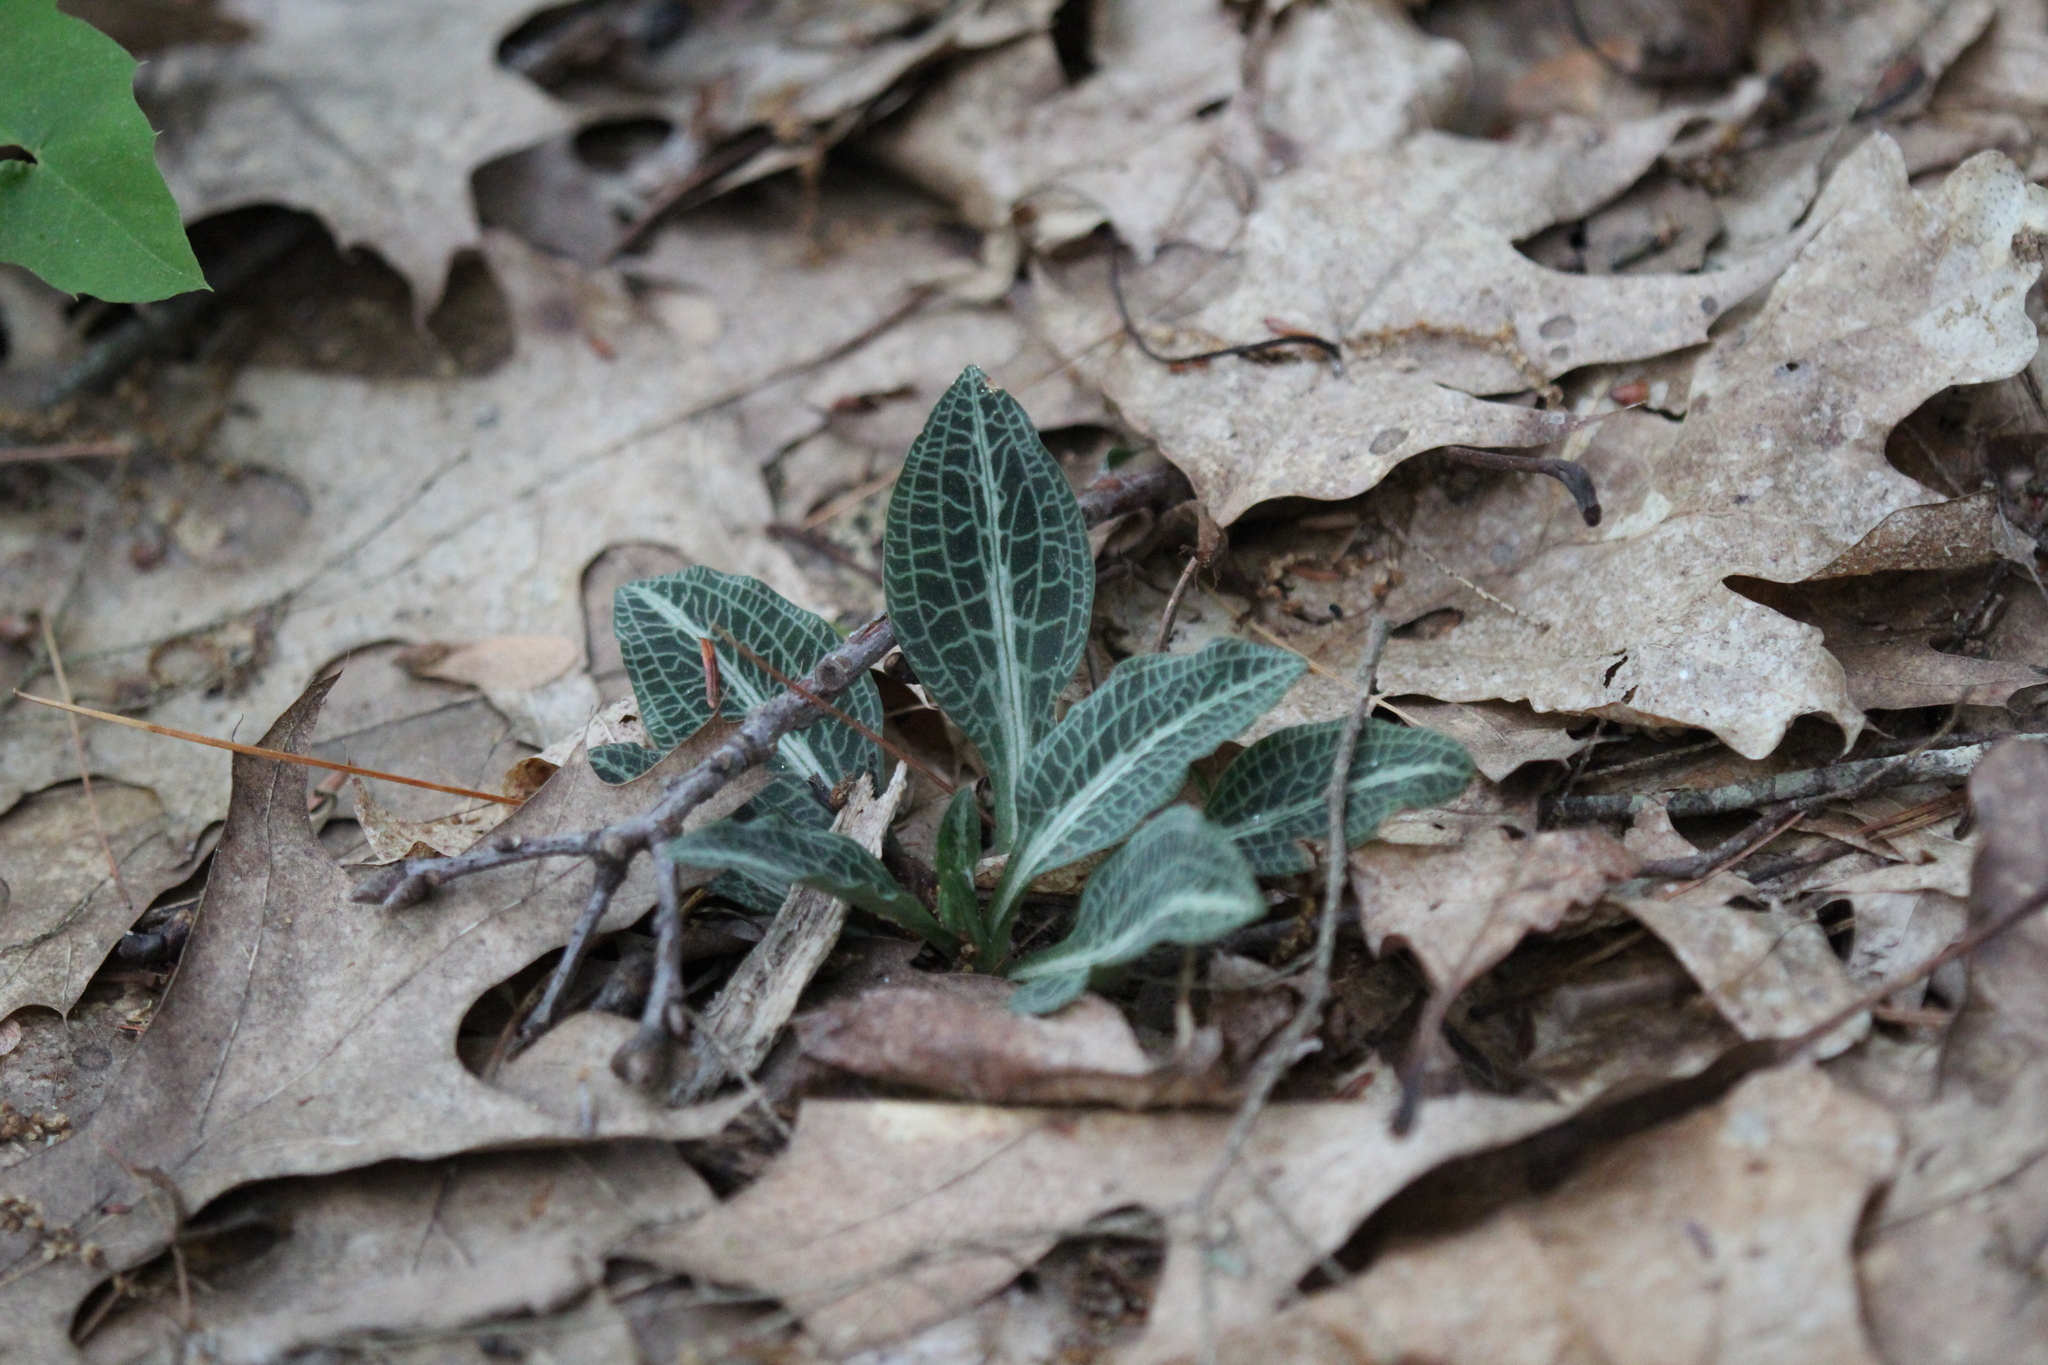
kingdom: Plantae
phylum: Tracheophyta
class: Liliopsida
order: Asparagales
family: Orchidaceae
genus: Goodyera
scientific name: Goodyera pubescens
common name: Downy rattlesnake-plantain
